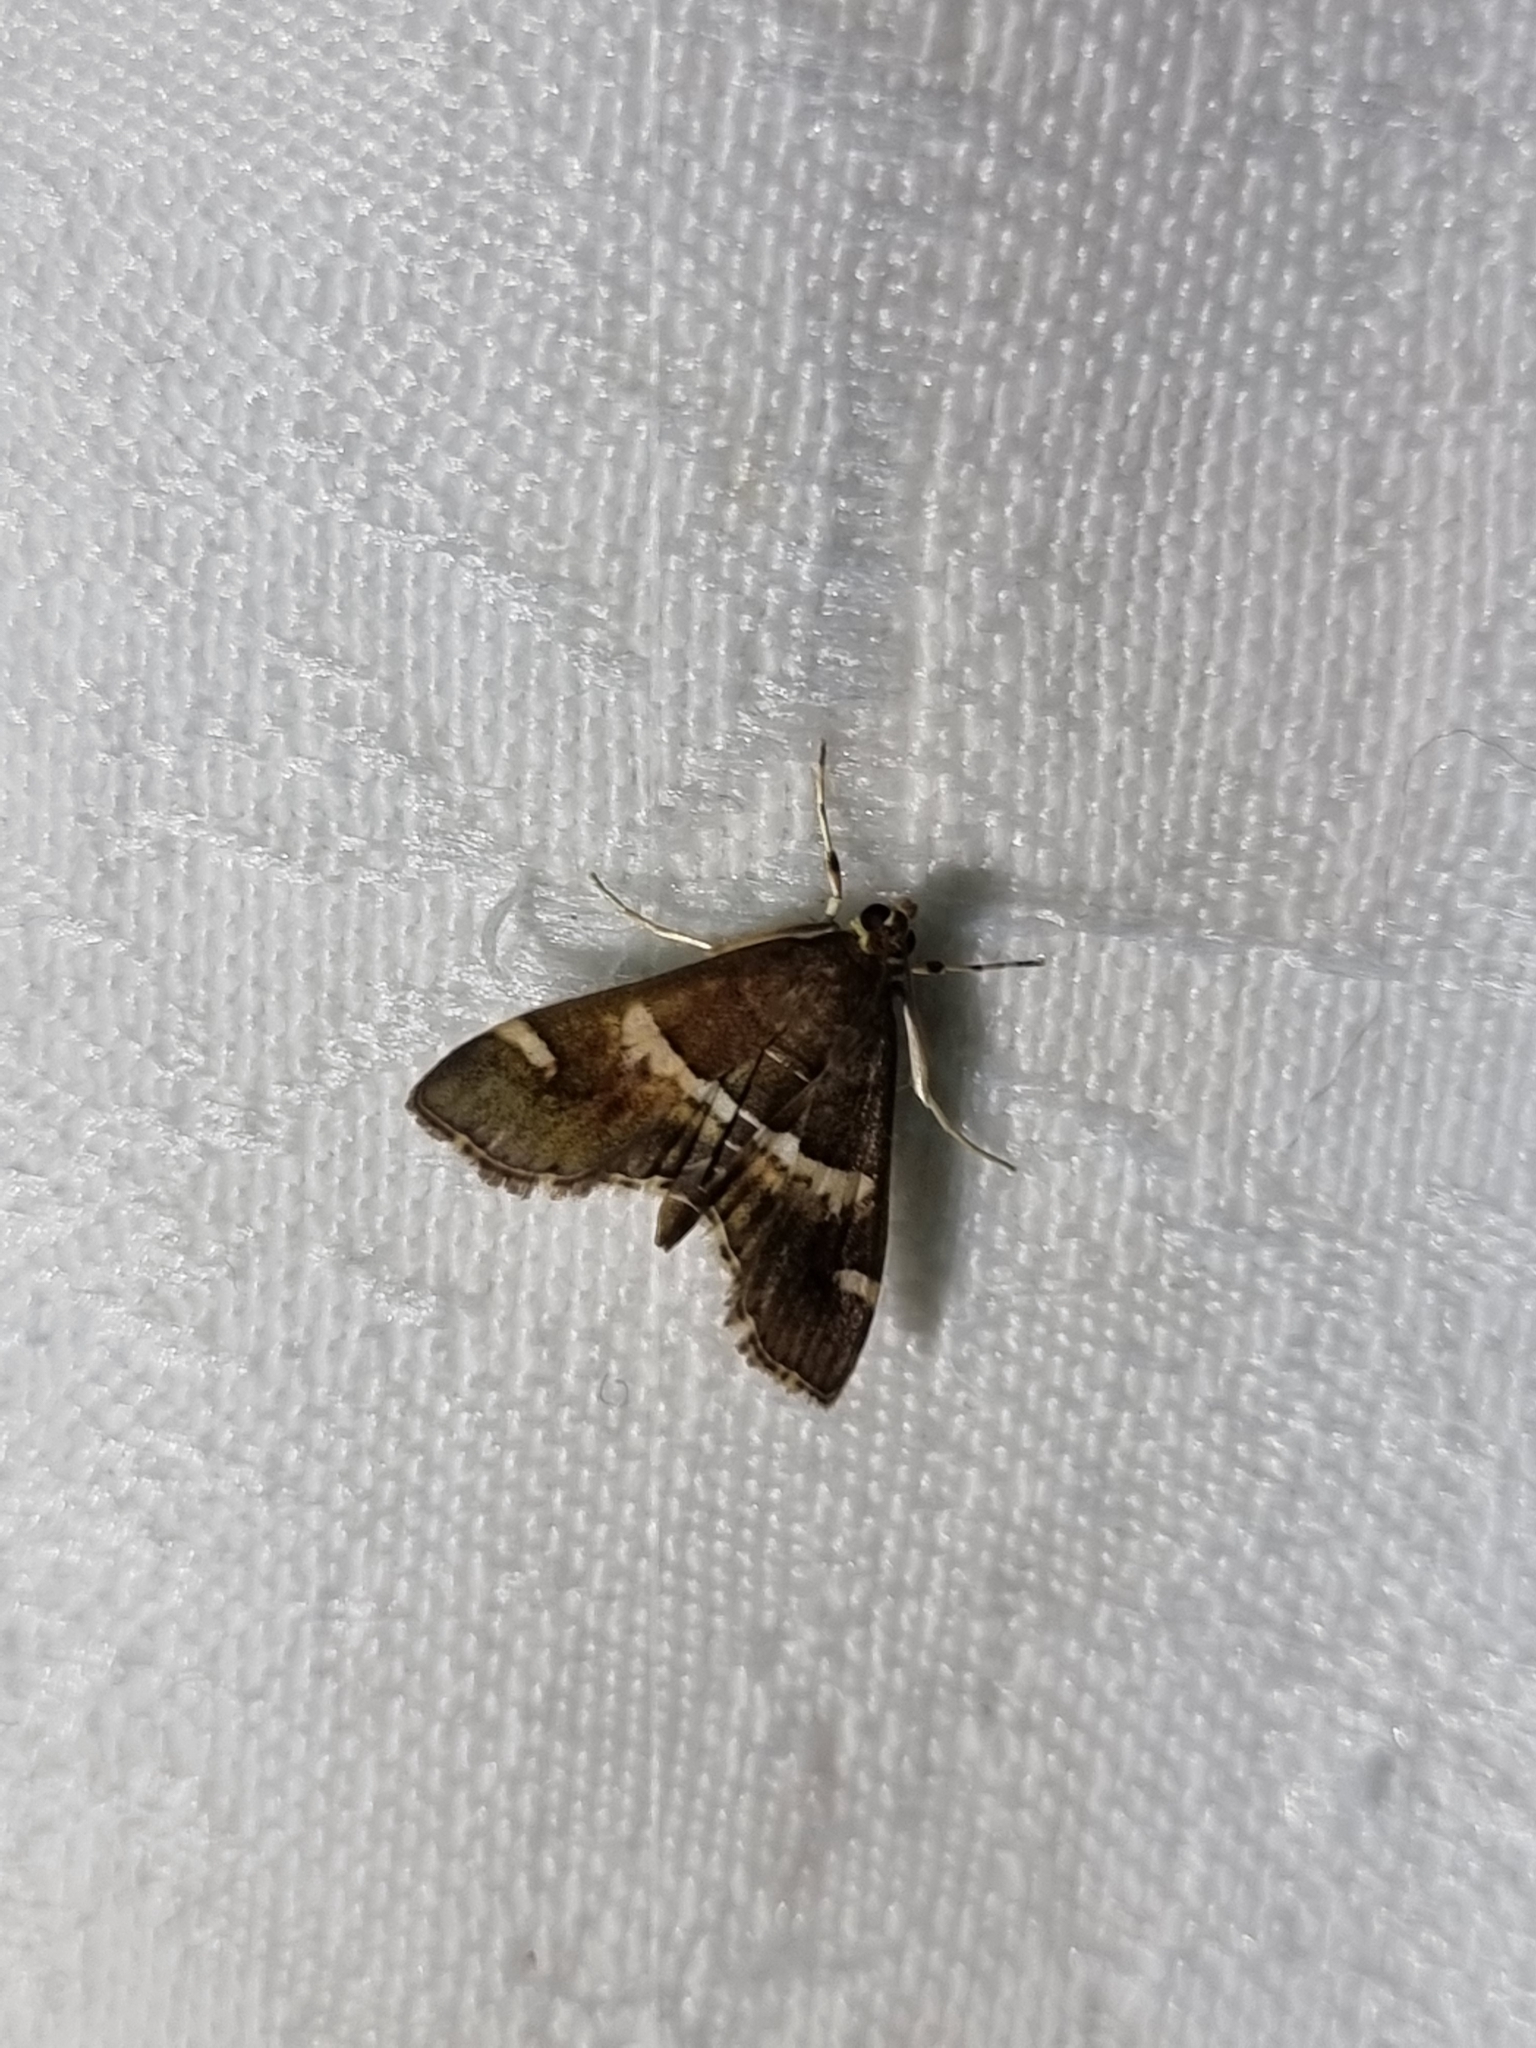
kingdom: Animalia
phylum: Arthropoda
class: Insecta
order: Lepidoptera
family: Crambidae
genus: Spoladea
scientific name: Spoladea recurvalis
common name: Beet webworm moth
